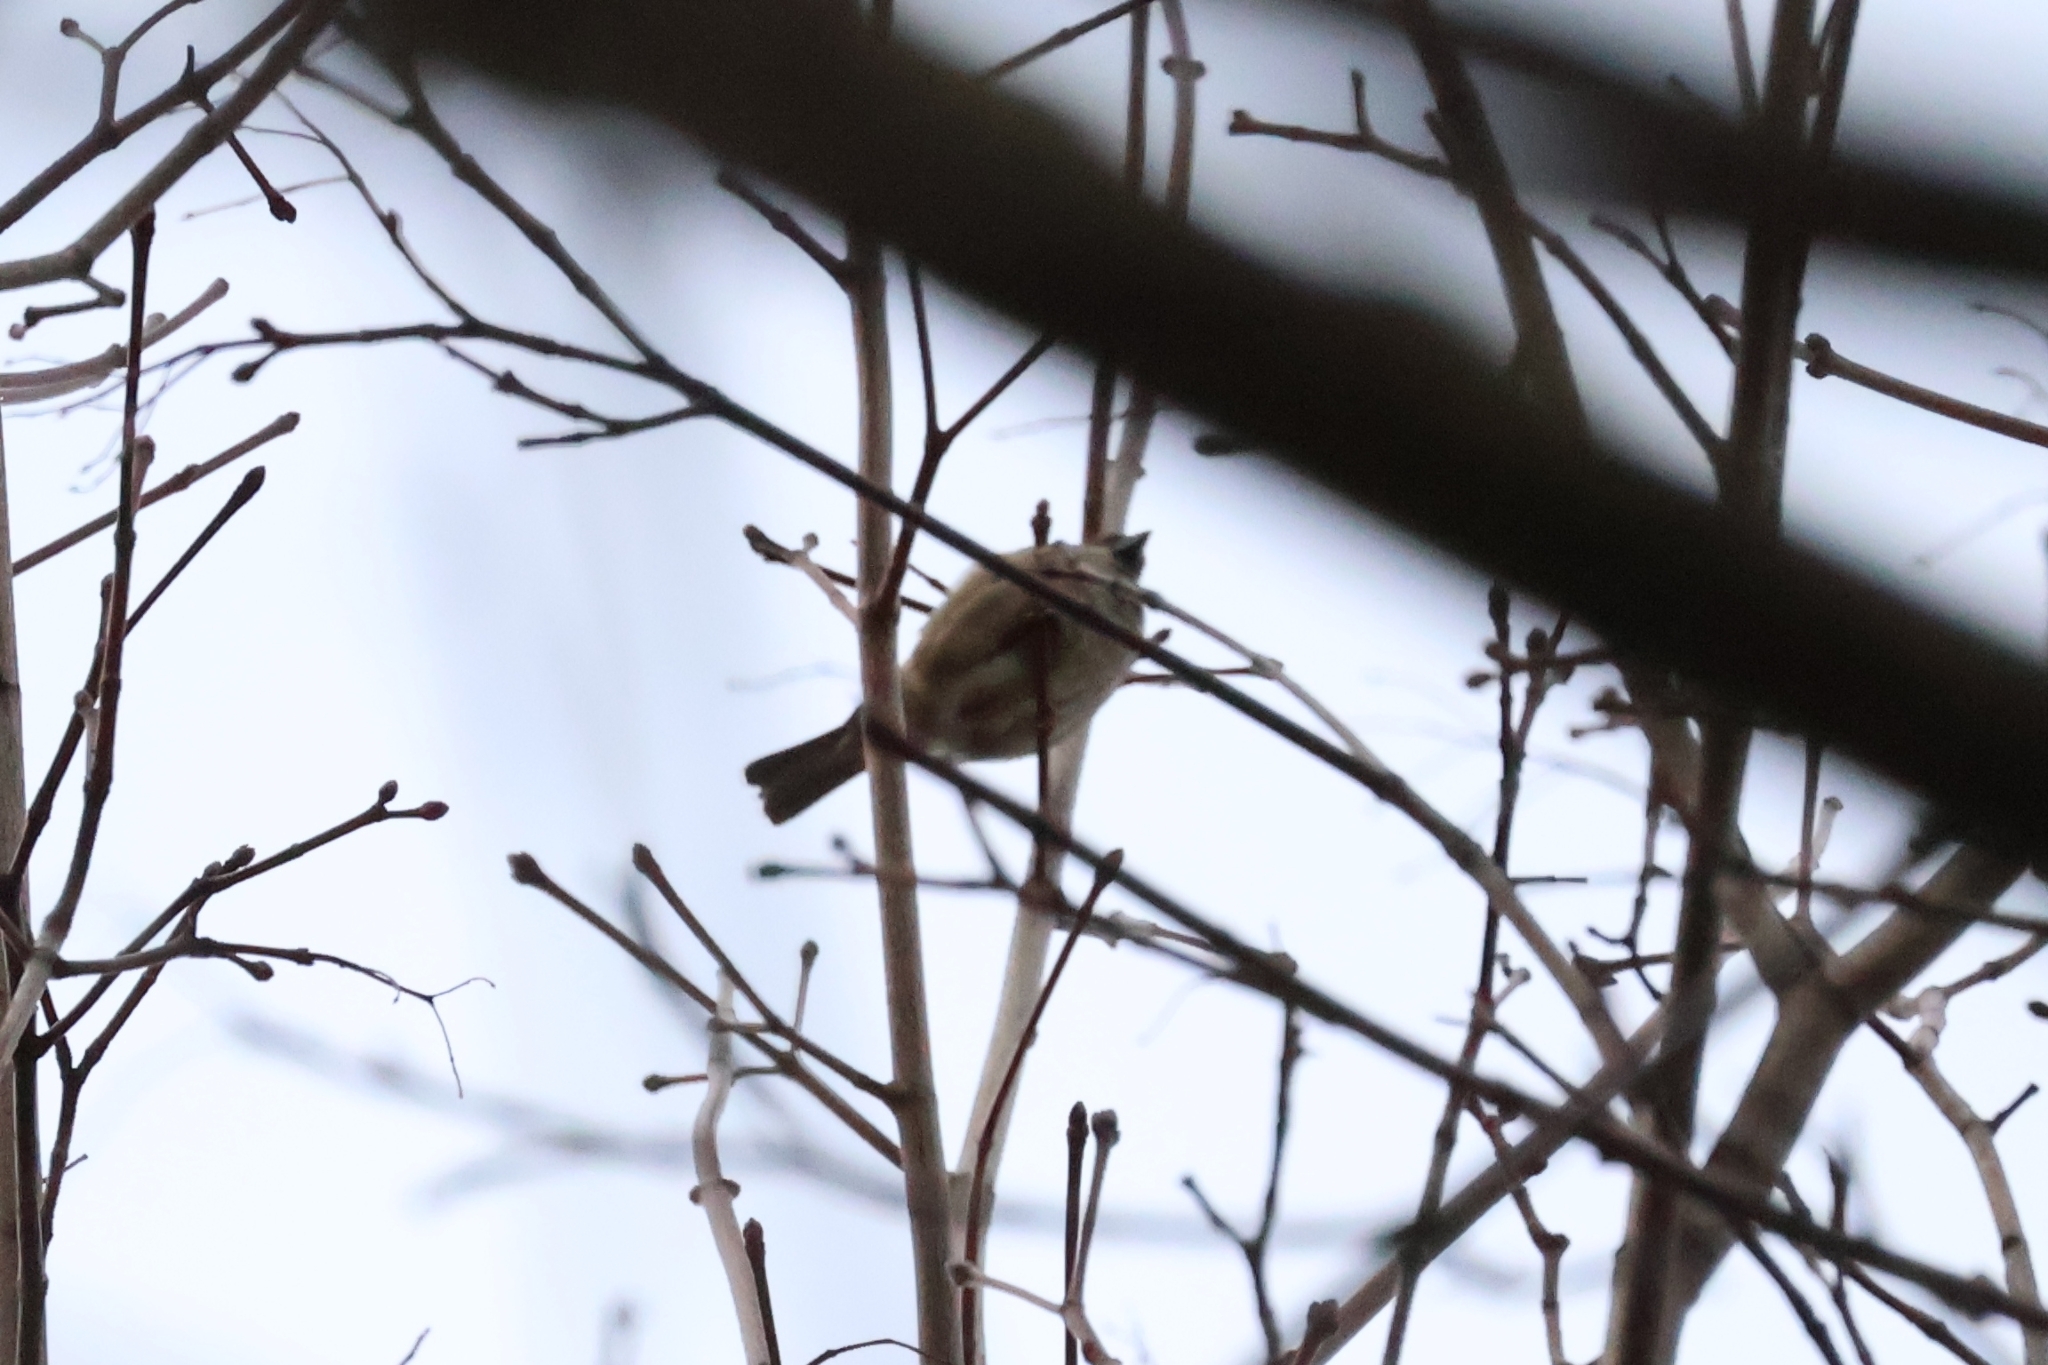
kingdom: Animalia
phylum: Chordata
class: Aves
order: Passeriformes
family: Passeridae
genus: Passer
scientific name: Passer domesticus
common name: House sparrow
